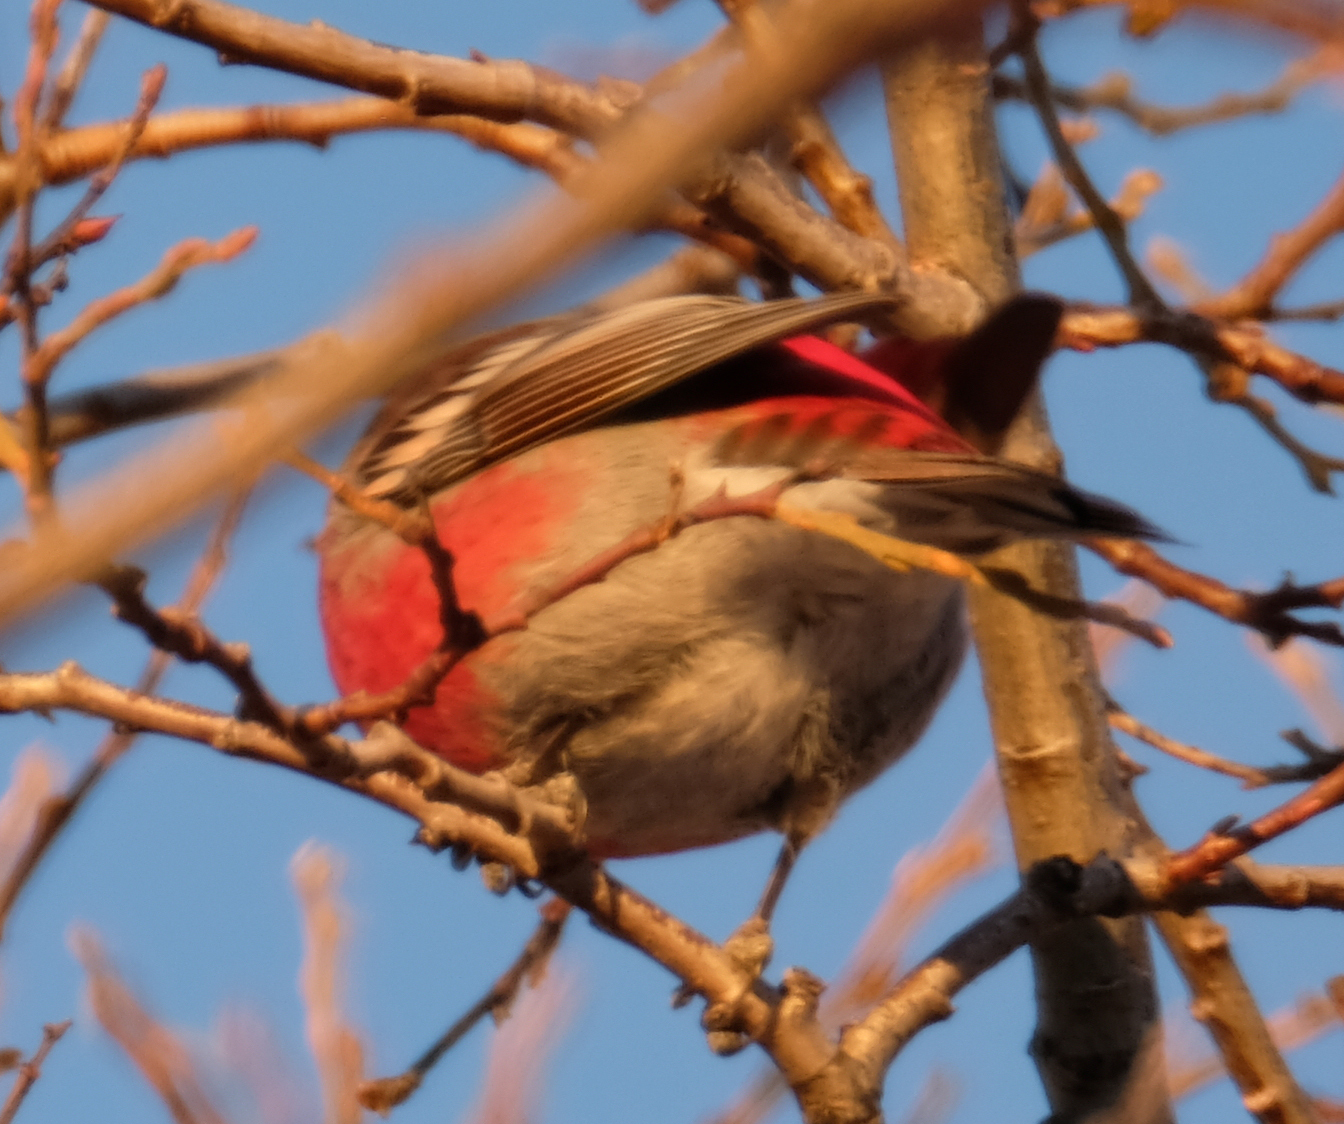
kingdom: Animalia
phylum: Chordata
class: Aves
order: Passeriformes
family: Fringillidae
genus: Pinicola
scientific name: Pinicola enucleator
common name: Pine grosbeak
